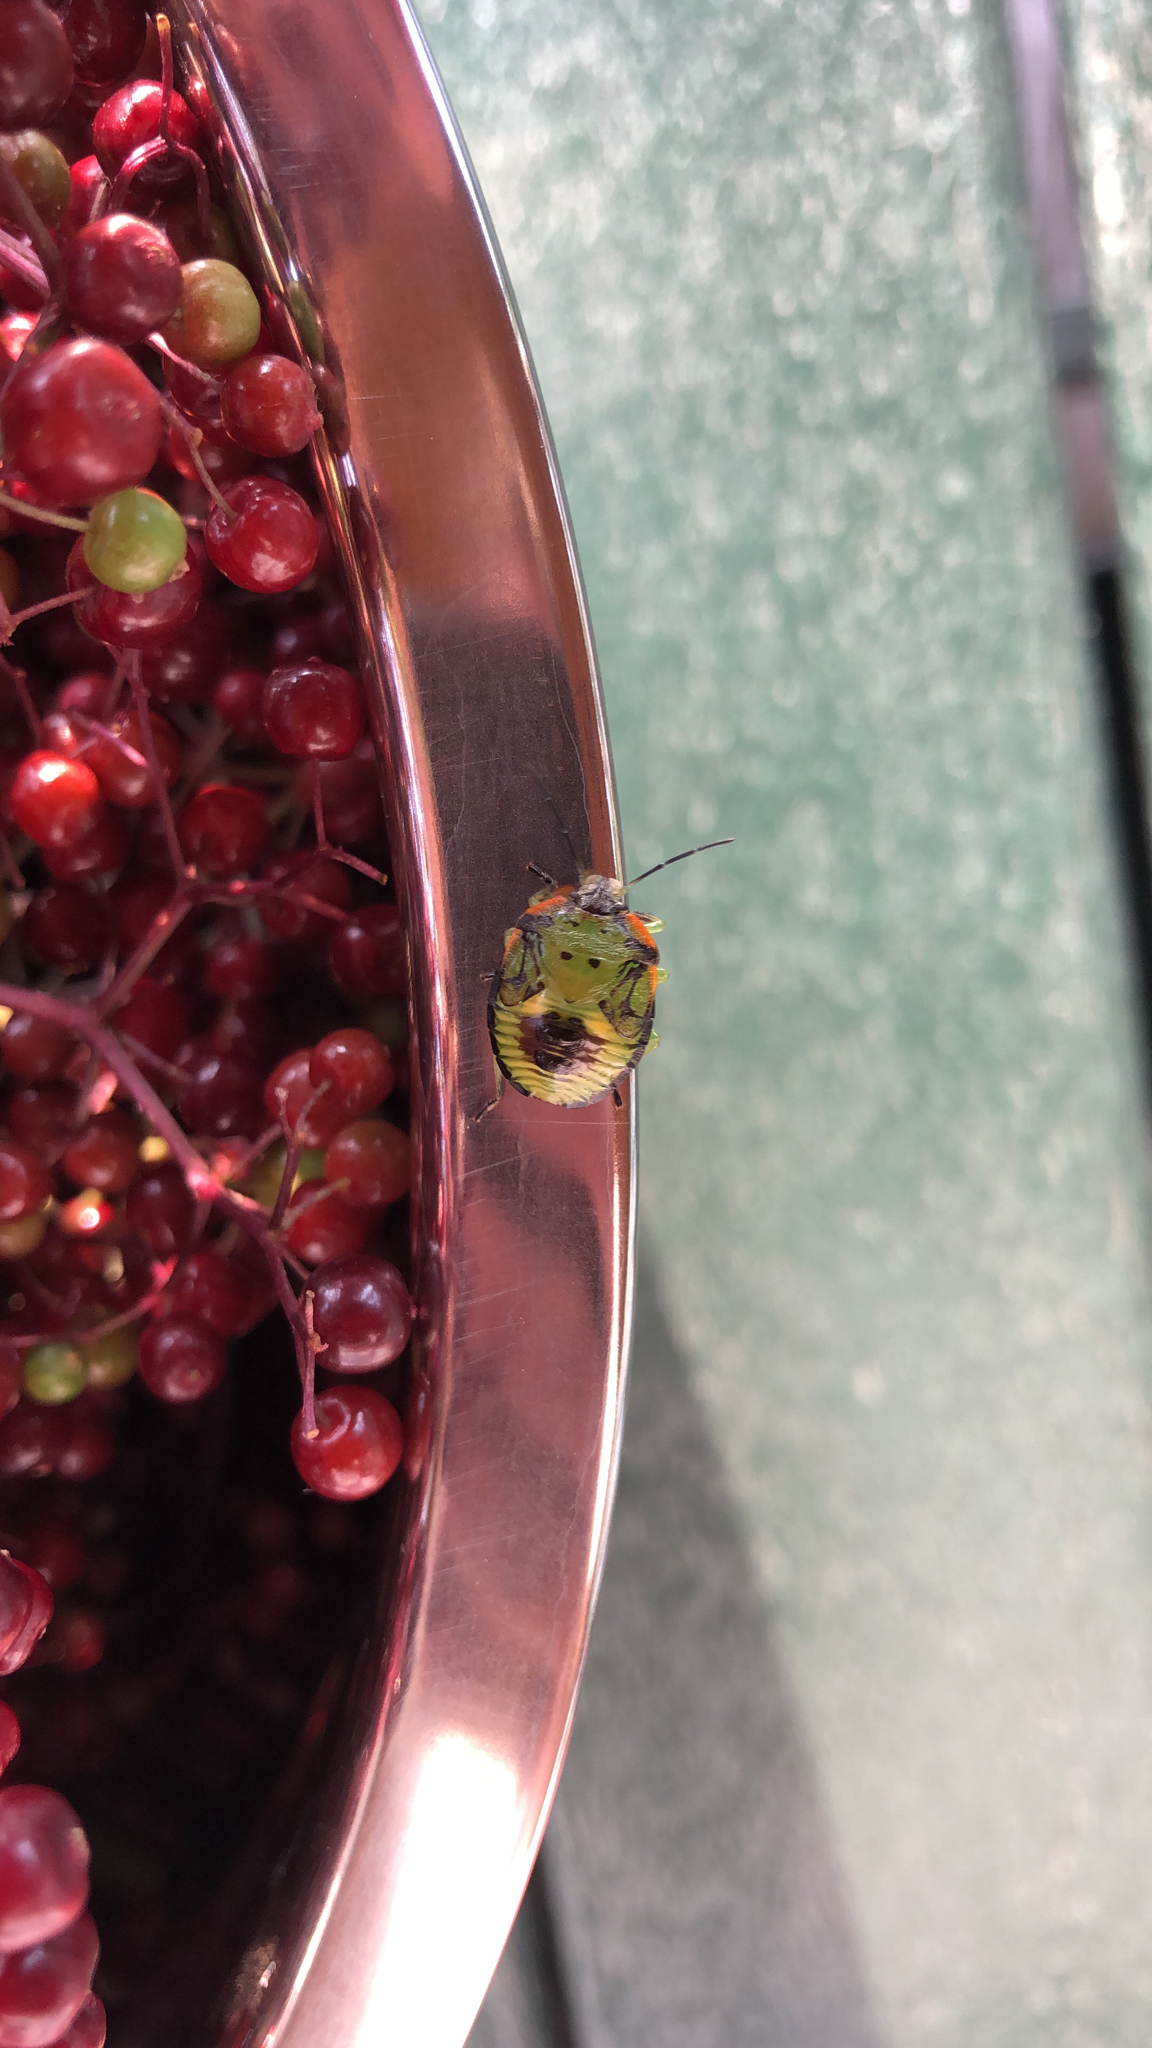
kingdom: Animalia
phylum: Arthropoda
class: Insecta
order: Hemiptera
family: Pentatomidae
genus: Chinavia
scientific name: Chinavia hilaris
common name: Green stink bug
